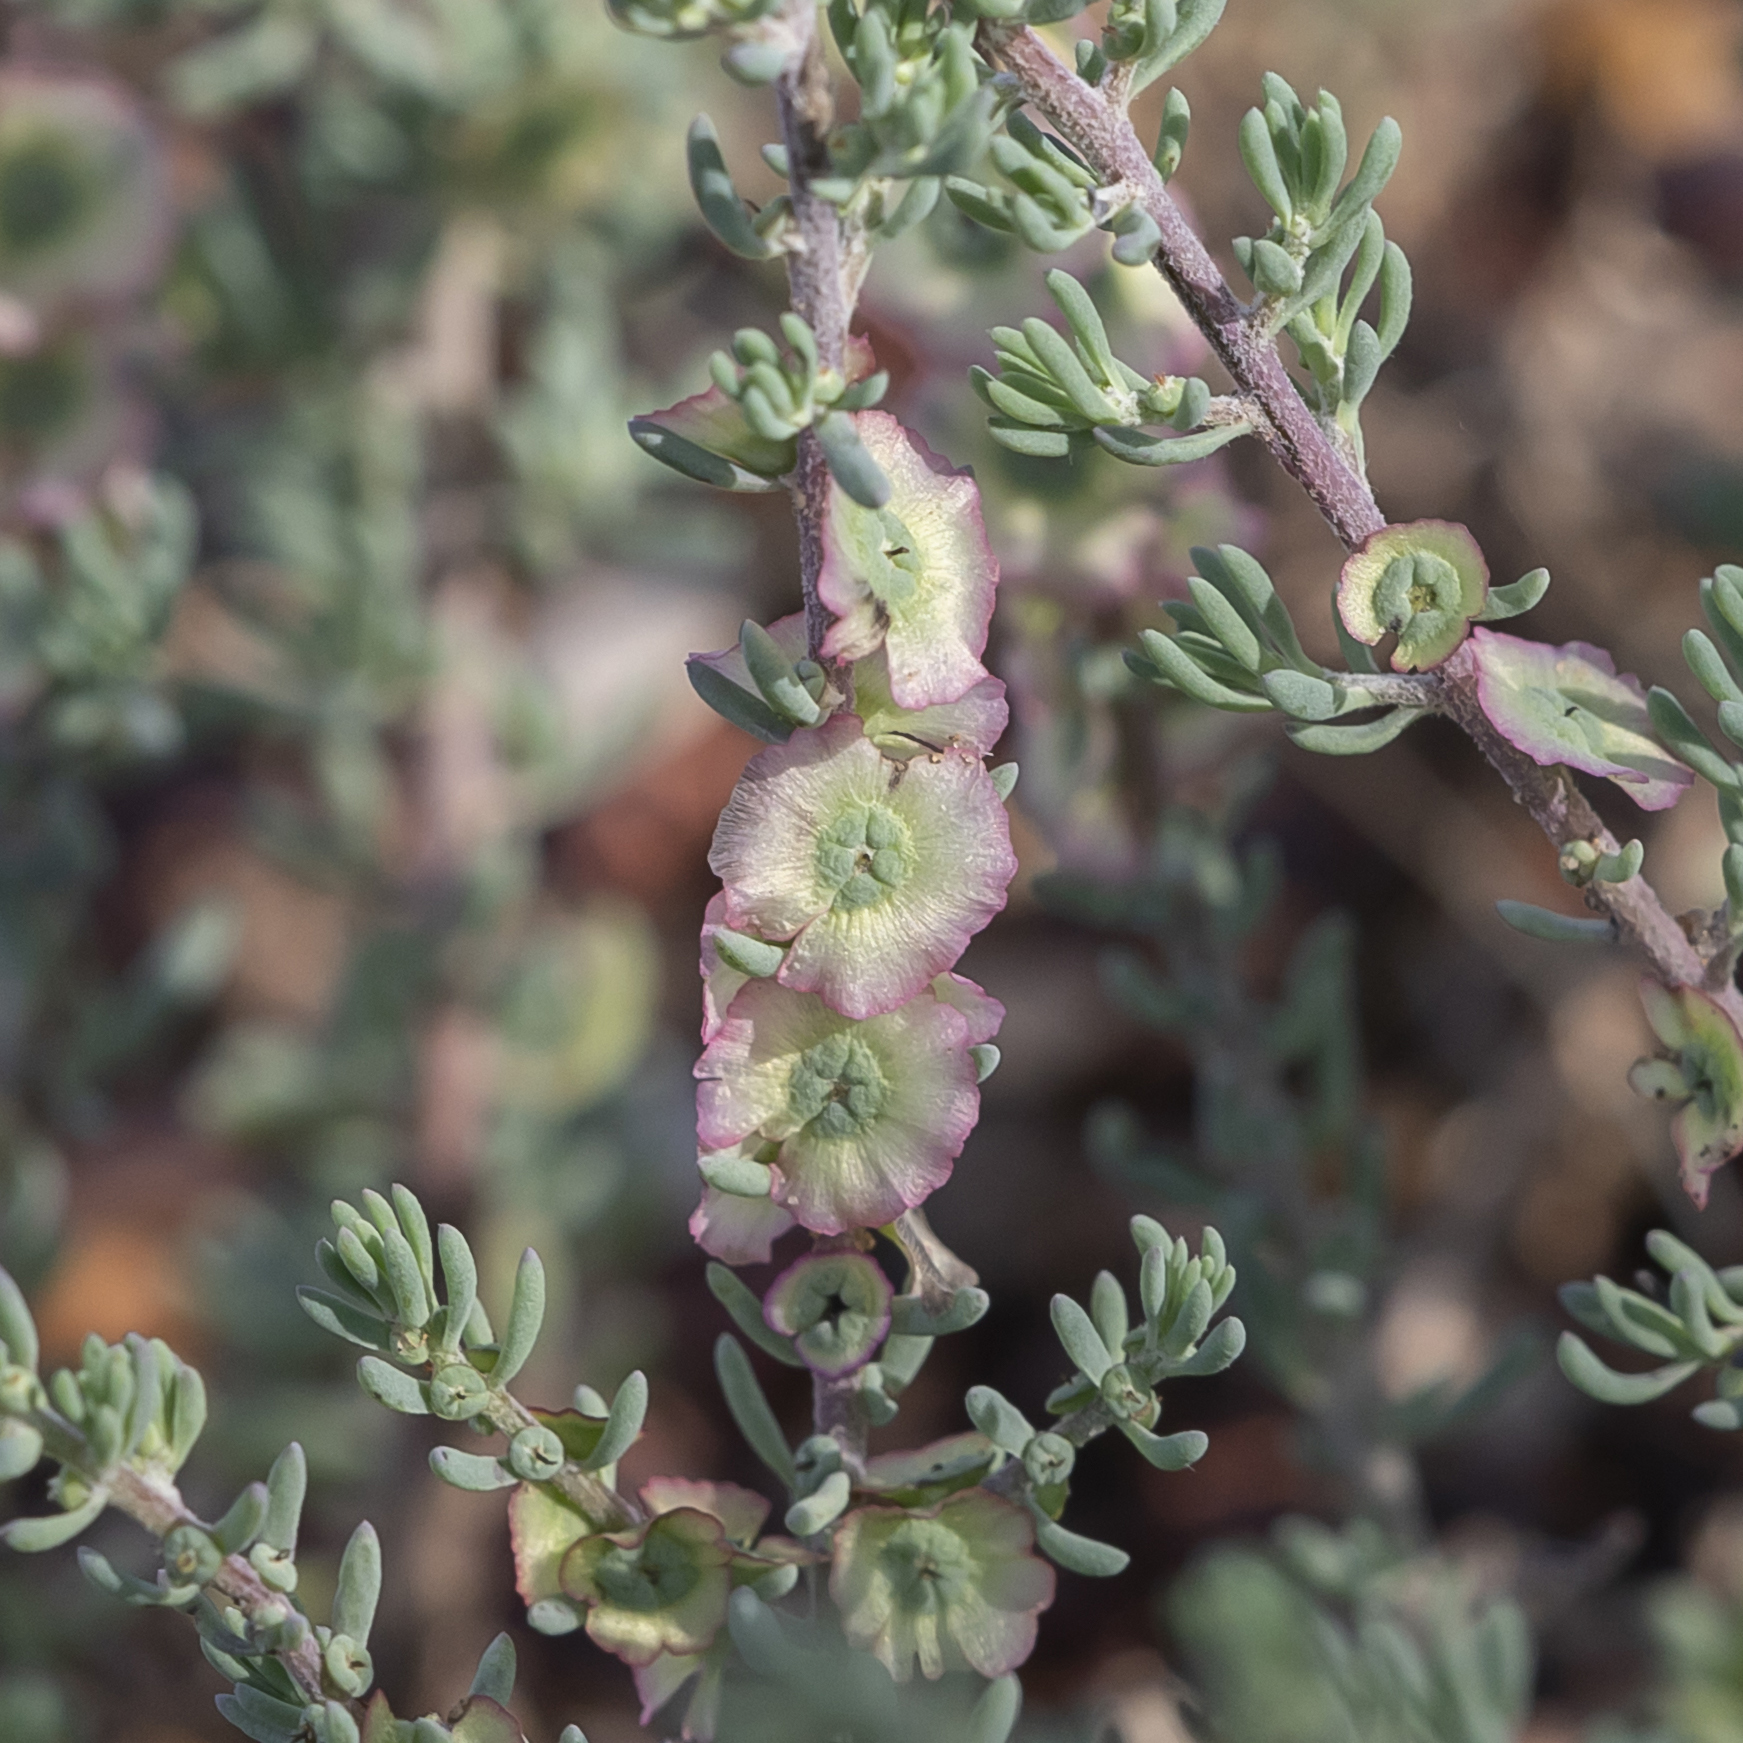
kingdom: Plantae
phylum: Tracheophyta
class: Magnoliopsida
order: Caryophyllales
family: Amaranthaceae
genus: Maireana
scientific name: Maireana decalvans
